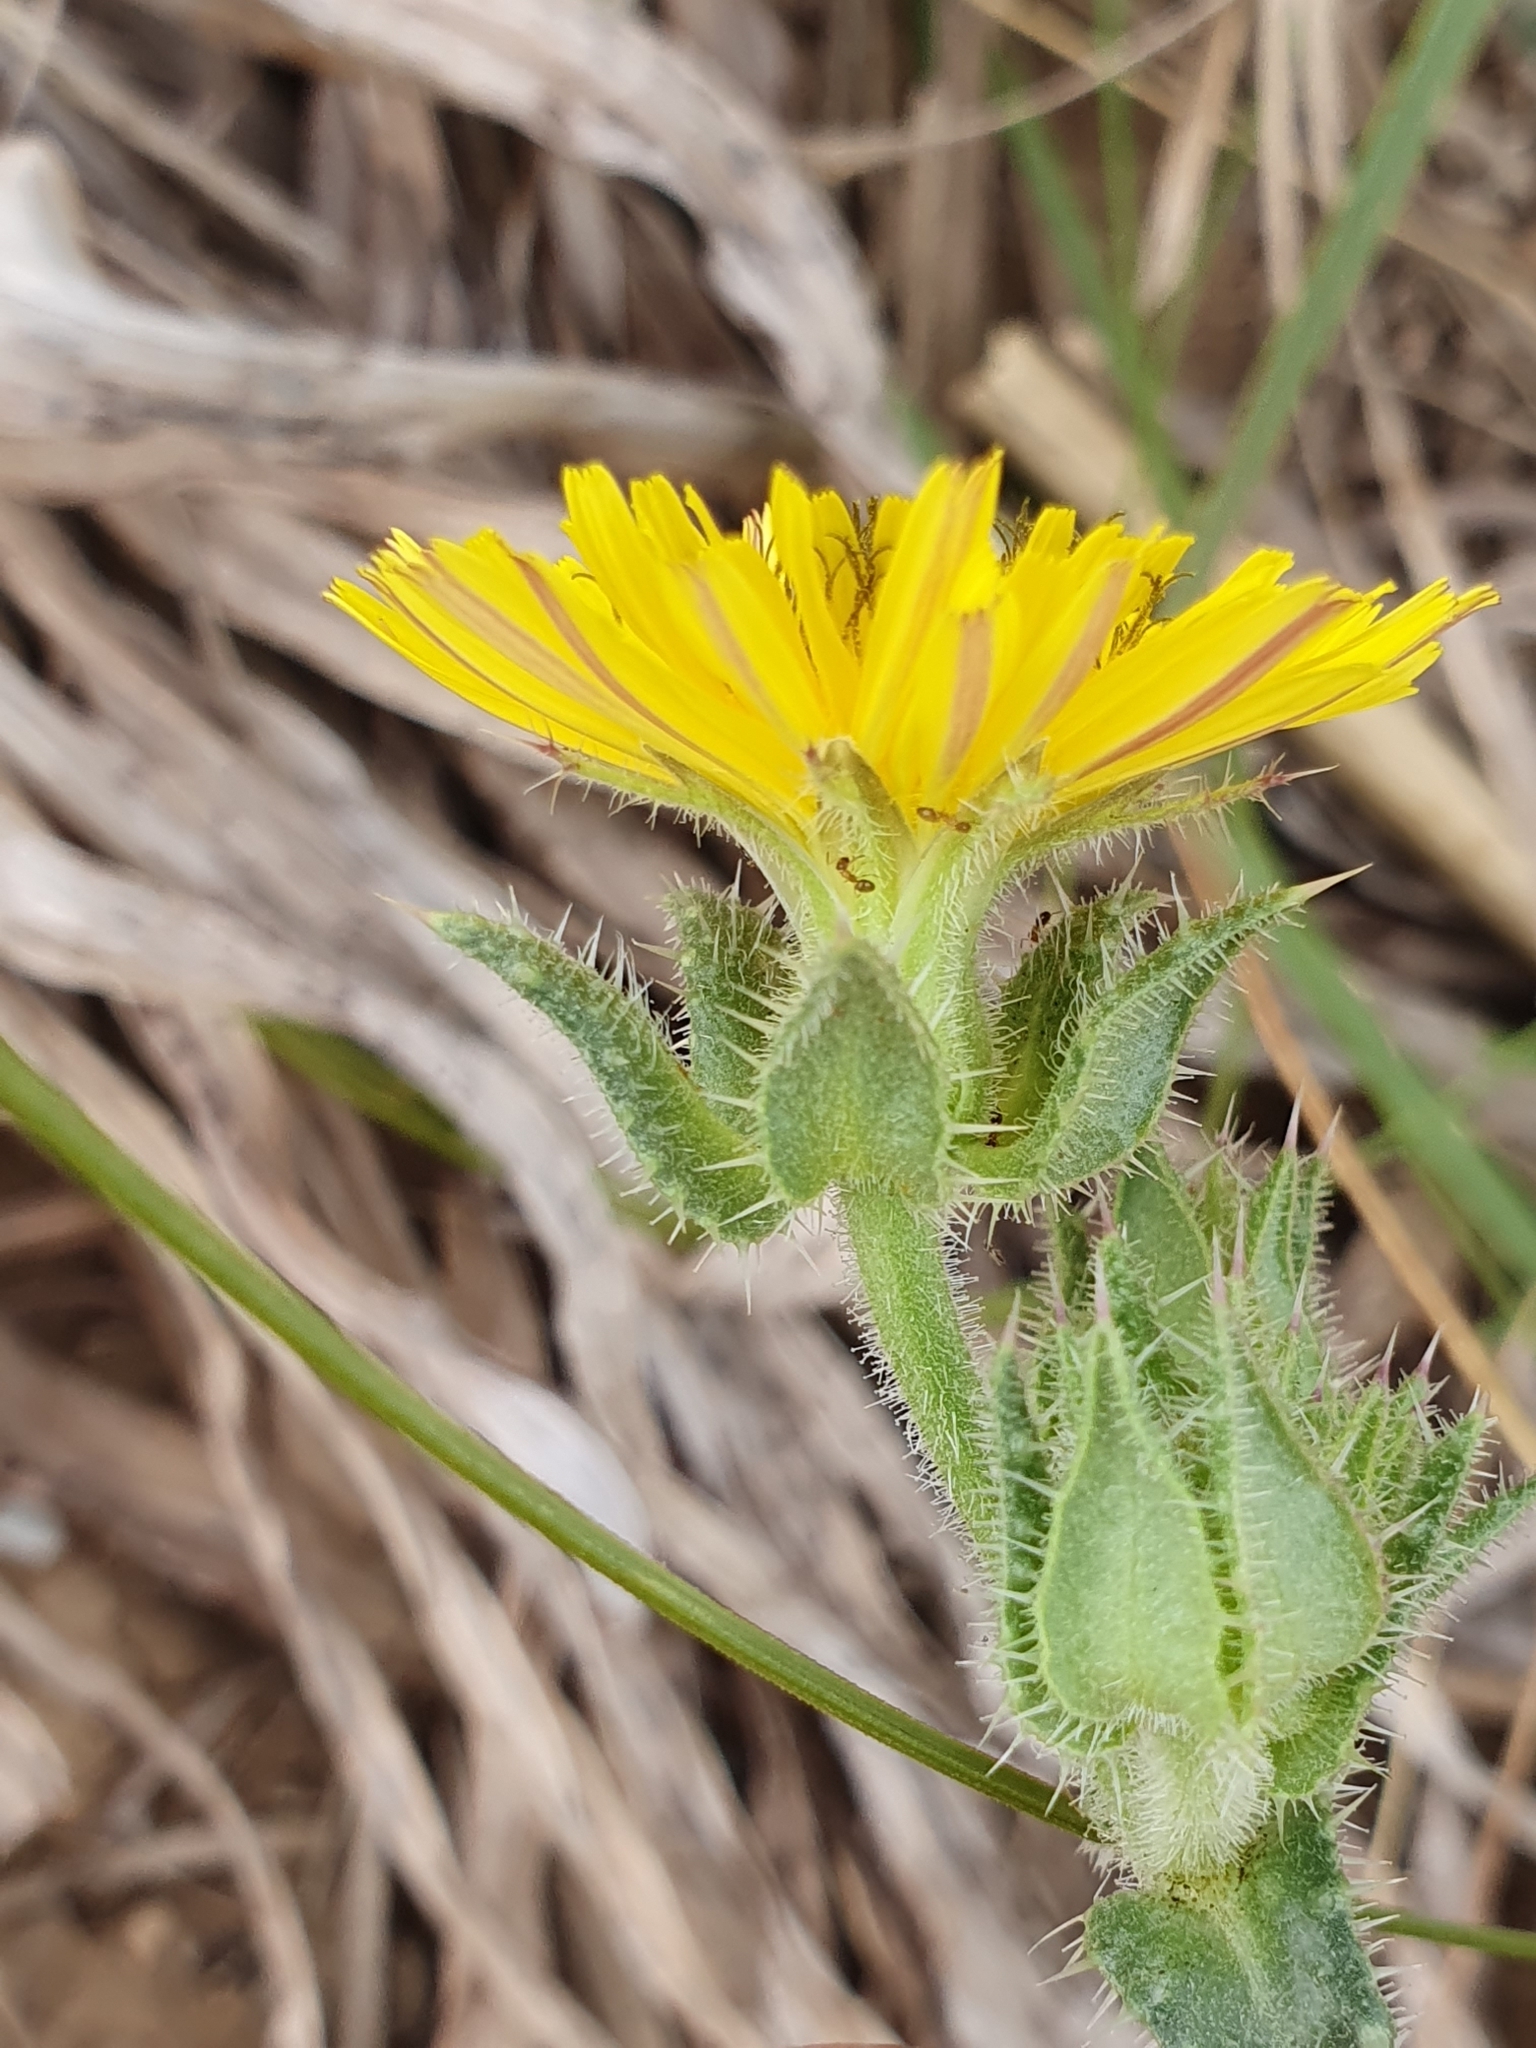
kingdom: Plantae
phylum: Tracheophyta
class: Magnoliopsida
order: Asterales
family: Asteraceae
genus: Helminthotheca
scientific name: Helminthotheca echioides
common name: Ox-tongue
